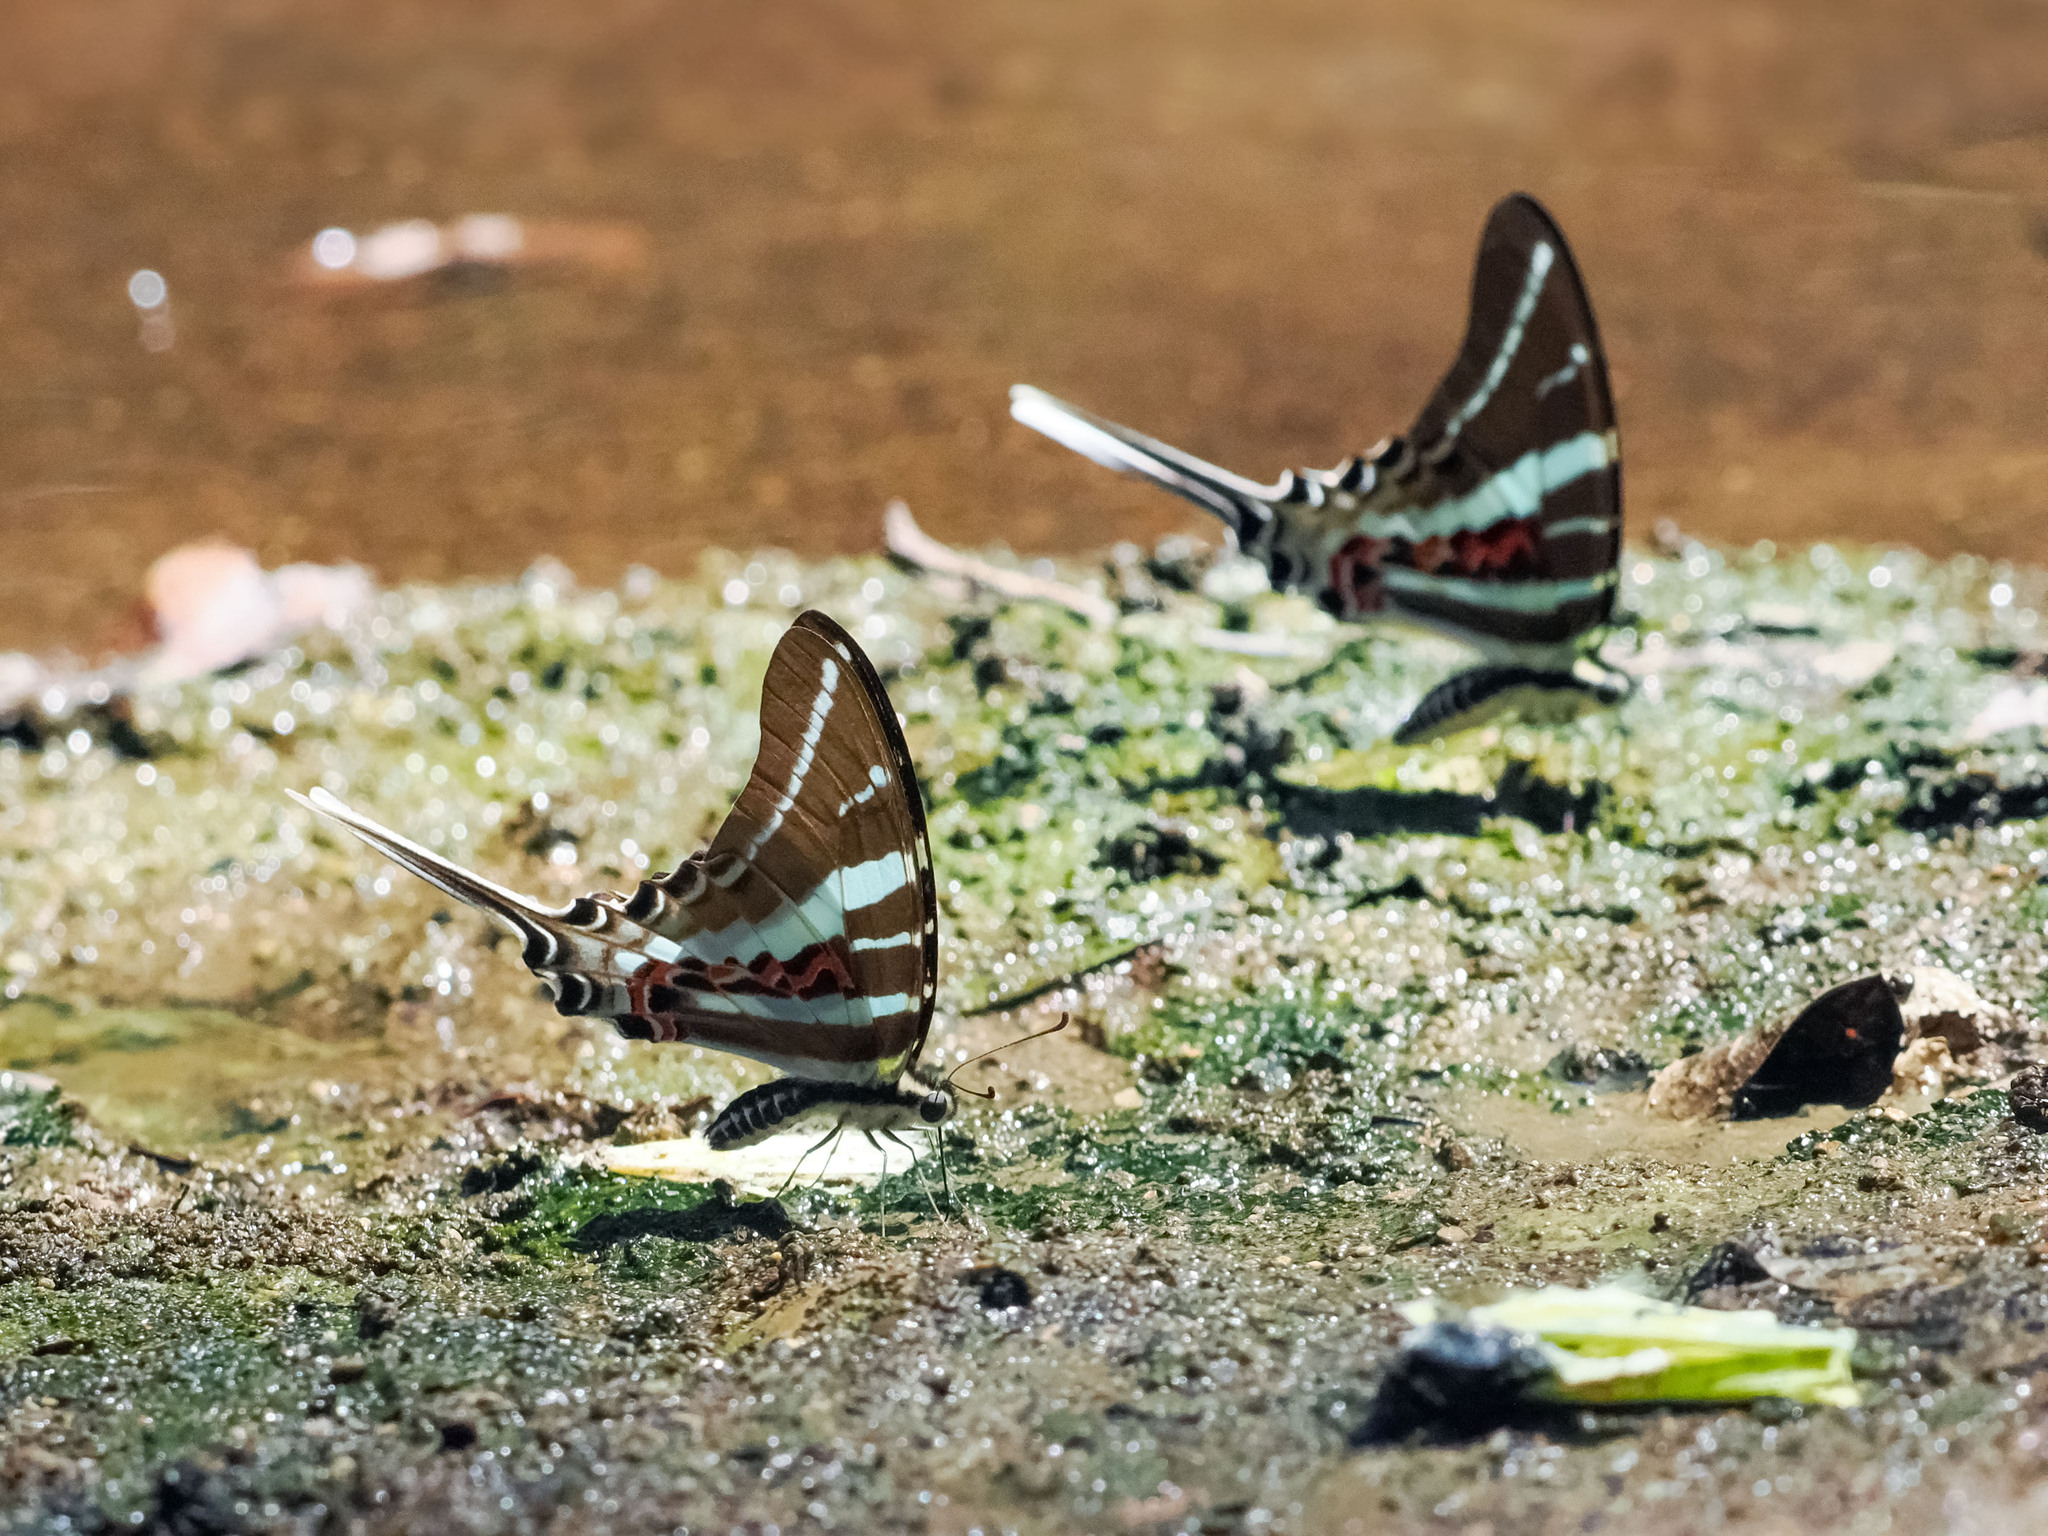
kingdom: Animalia
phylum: Arthropoda
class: Insecta
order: Lepidoptera
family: Papilionidae
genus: Graphium
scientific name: Graphium rhesus
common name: Monkey swordtail
